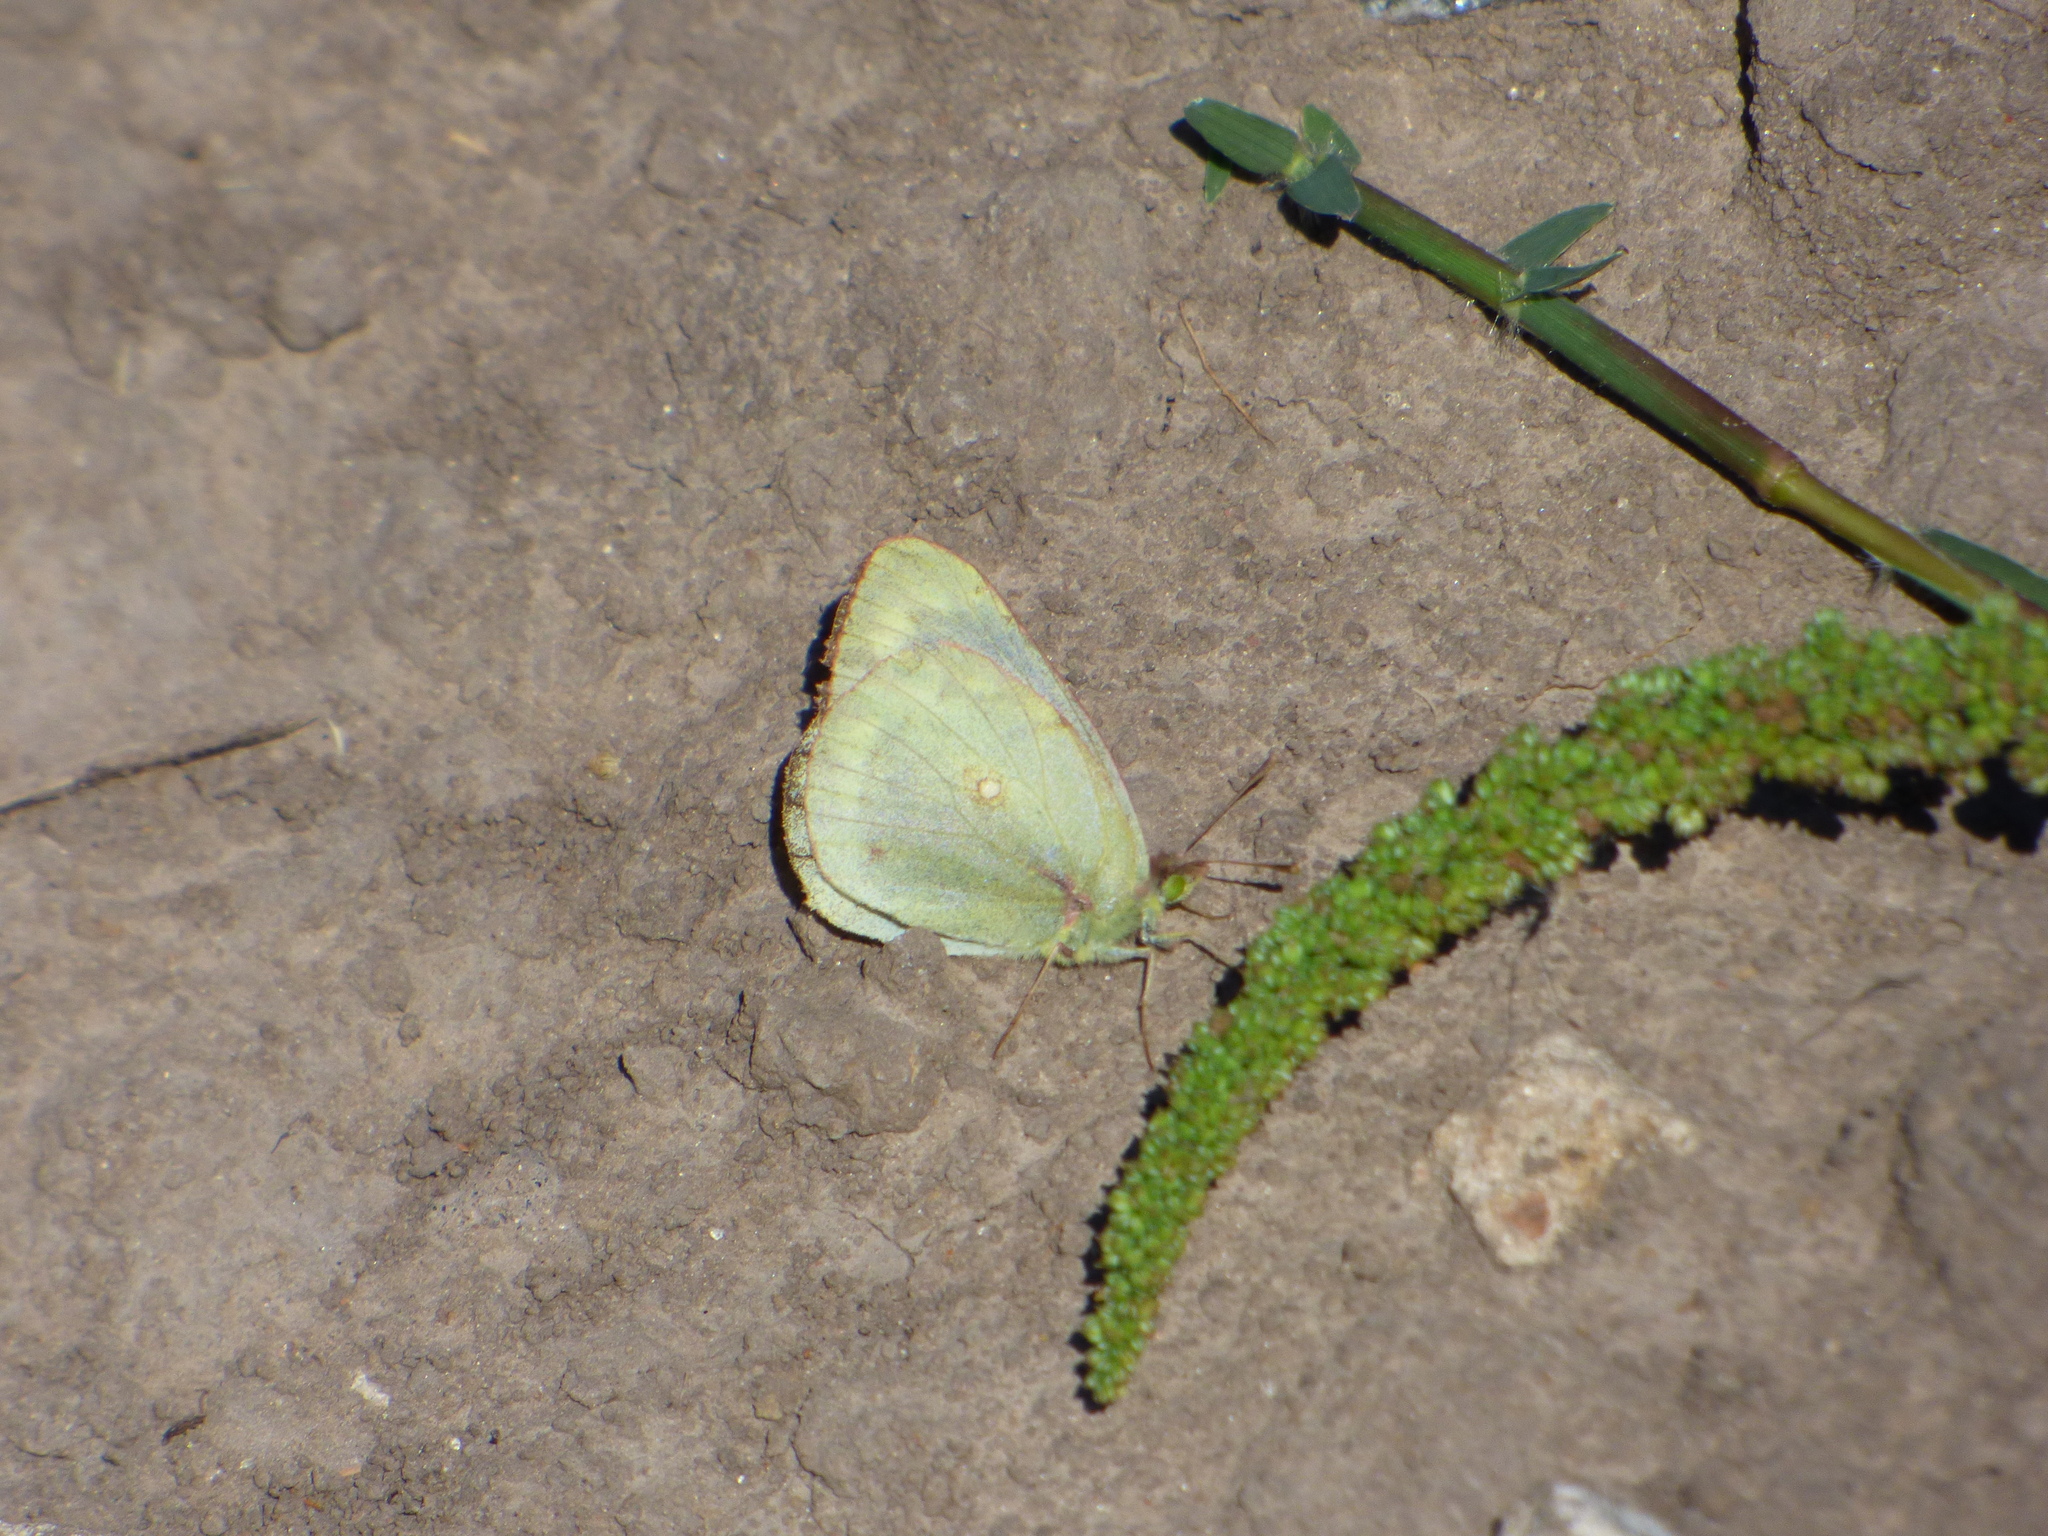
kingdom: Animalia
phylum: Arthropoda
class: Insecta
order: Lepidoptera
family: Pieridae
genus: Colias
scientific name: Colias lesbia
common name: Lesbia clouded yellow
